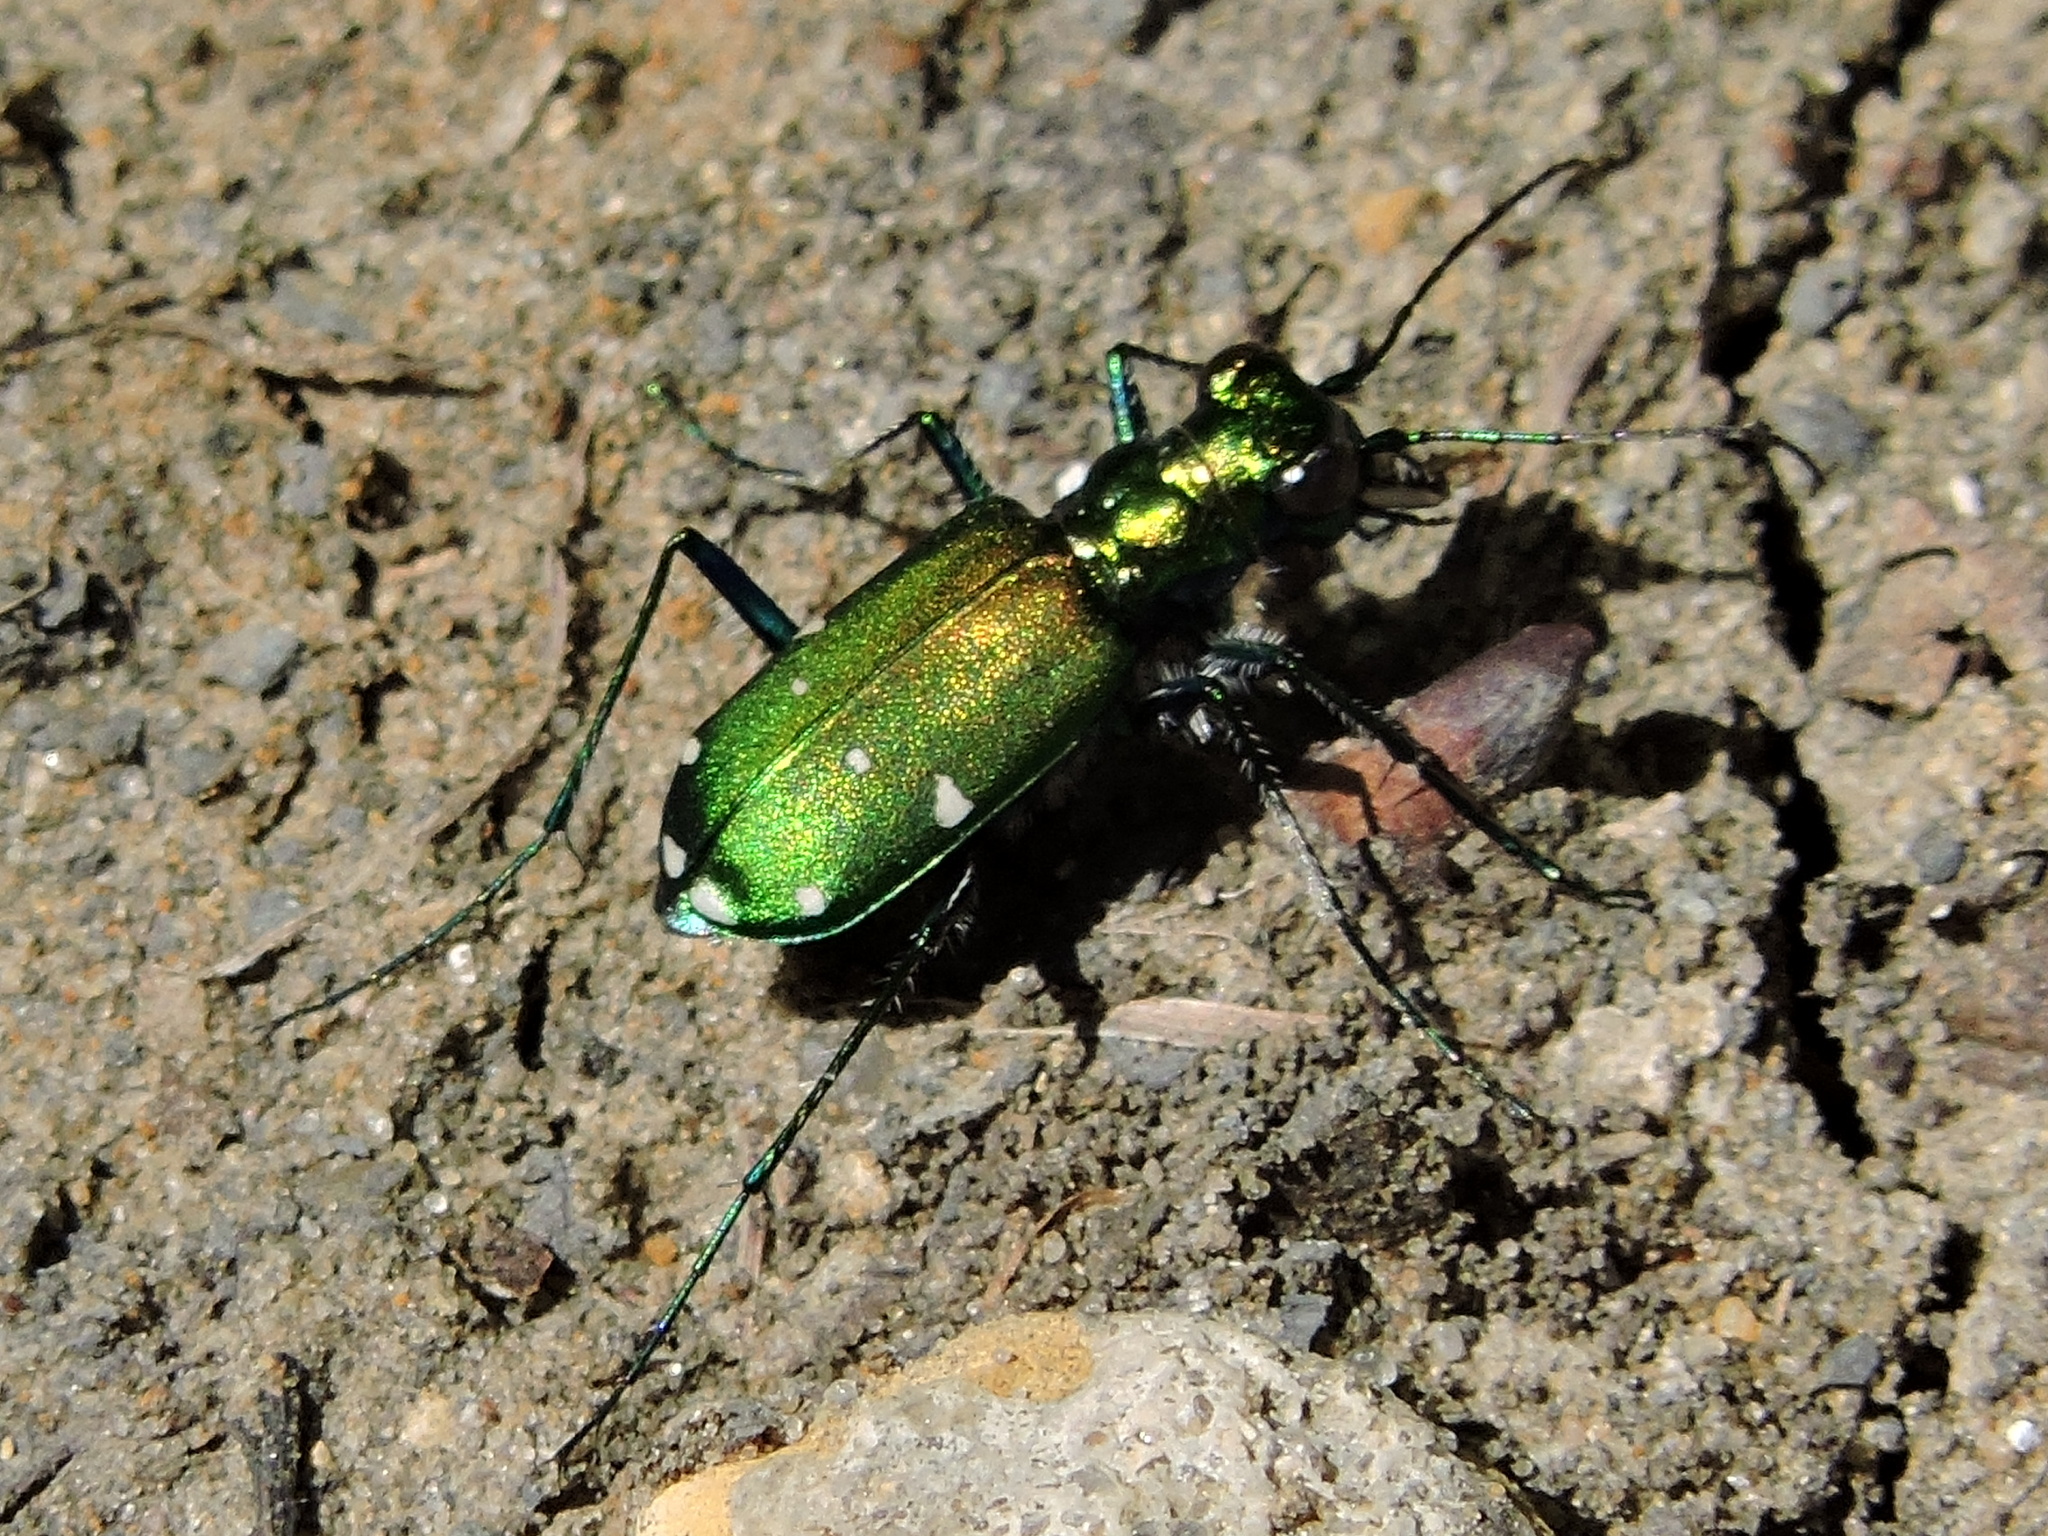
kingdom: Animalia
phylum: Arthropoda
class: Insecta
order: Coleoptera
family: Carabidae
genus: Cicindela
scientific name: Cicindela sexguttata
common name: Six-spotted tiger beetle
